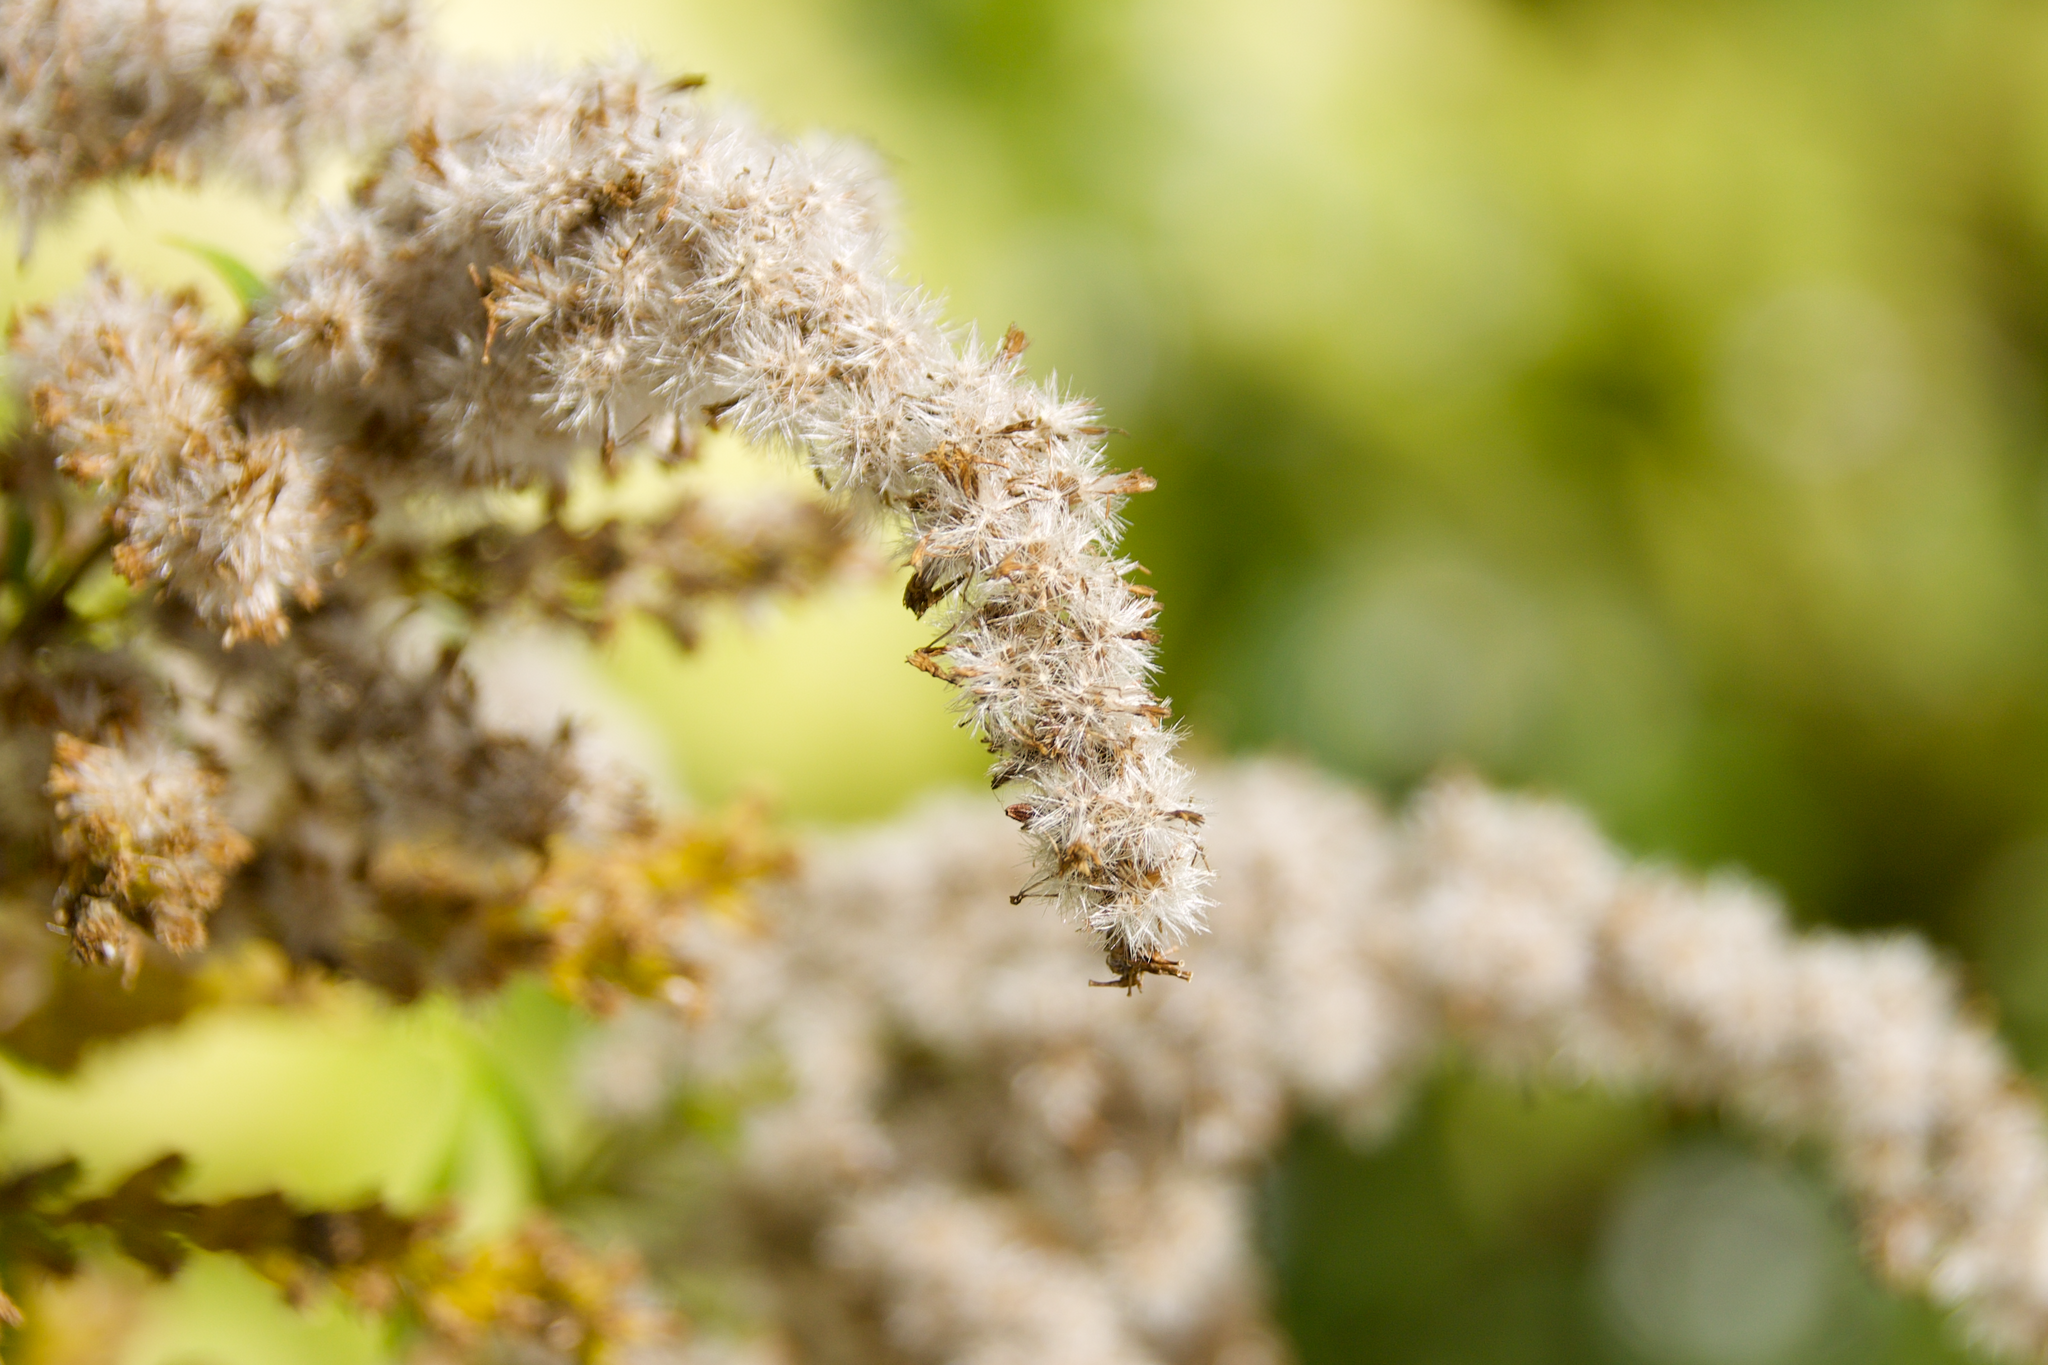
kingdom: Plantae
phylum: Tracheophyta
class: Magnoliopsida
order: Asterales
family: Asteraceae
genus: Solidago
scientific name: Solidago canadensis
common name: Canada goldenrod
